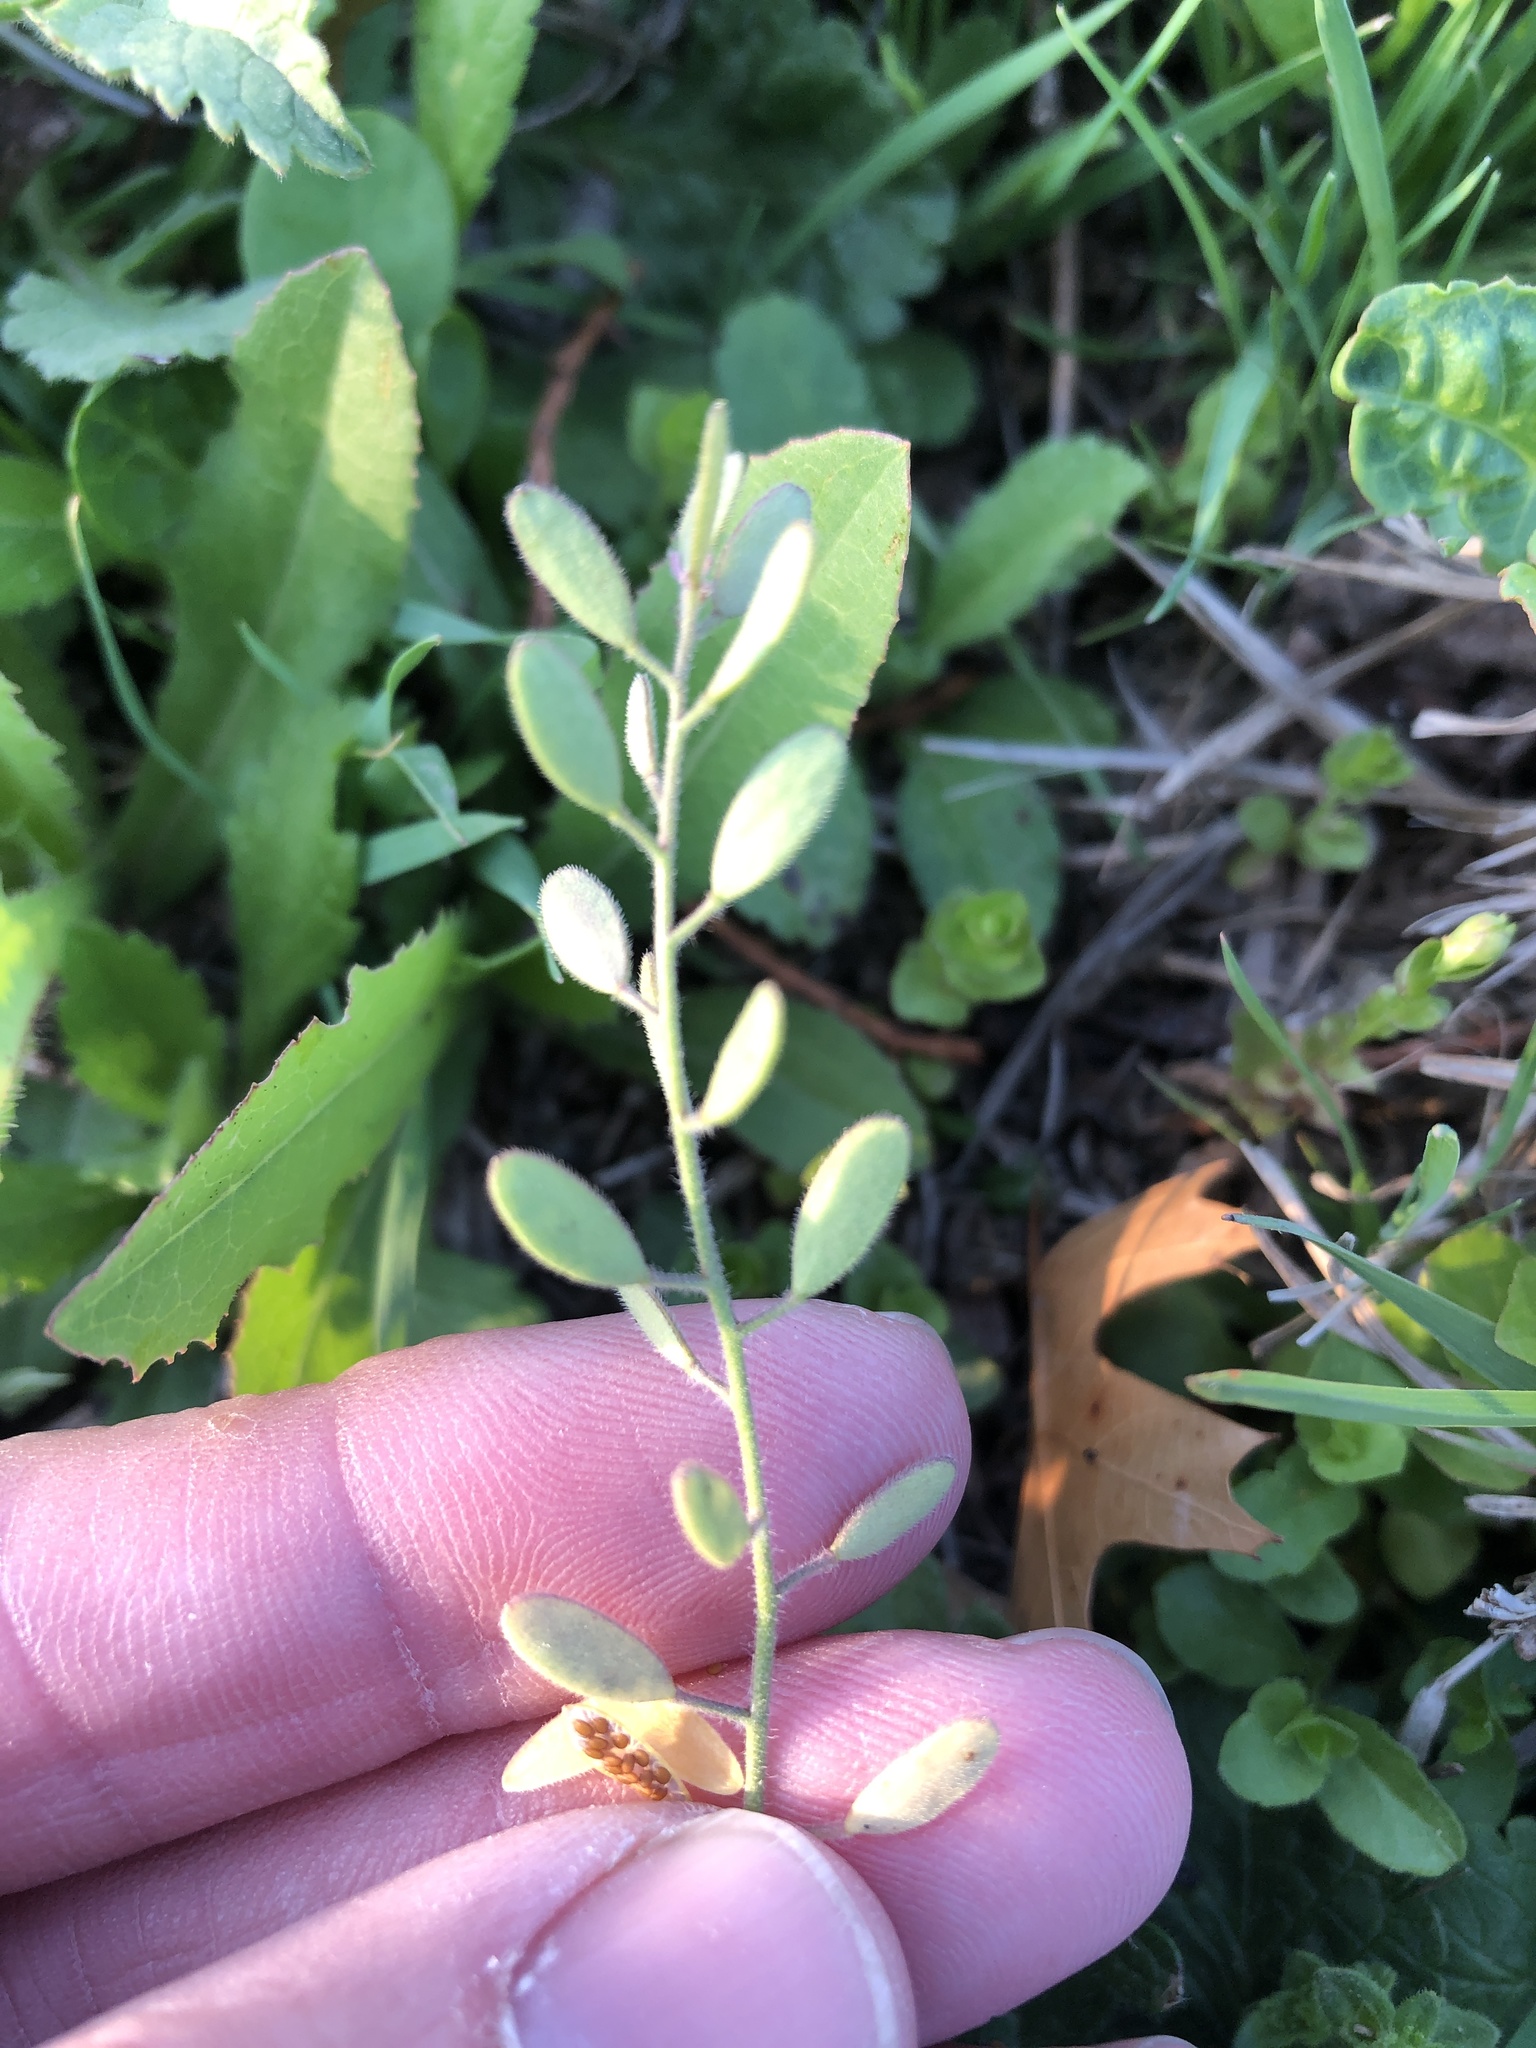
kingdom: Plantae
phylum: Tracheophyta
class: Magnoliopsida
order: Brassicales
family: Brassicaceae
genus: Tomostima
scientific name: Tomostima platycarpa
